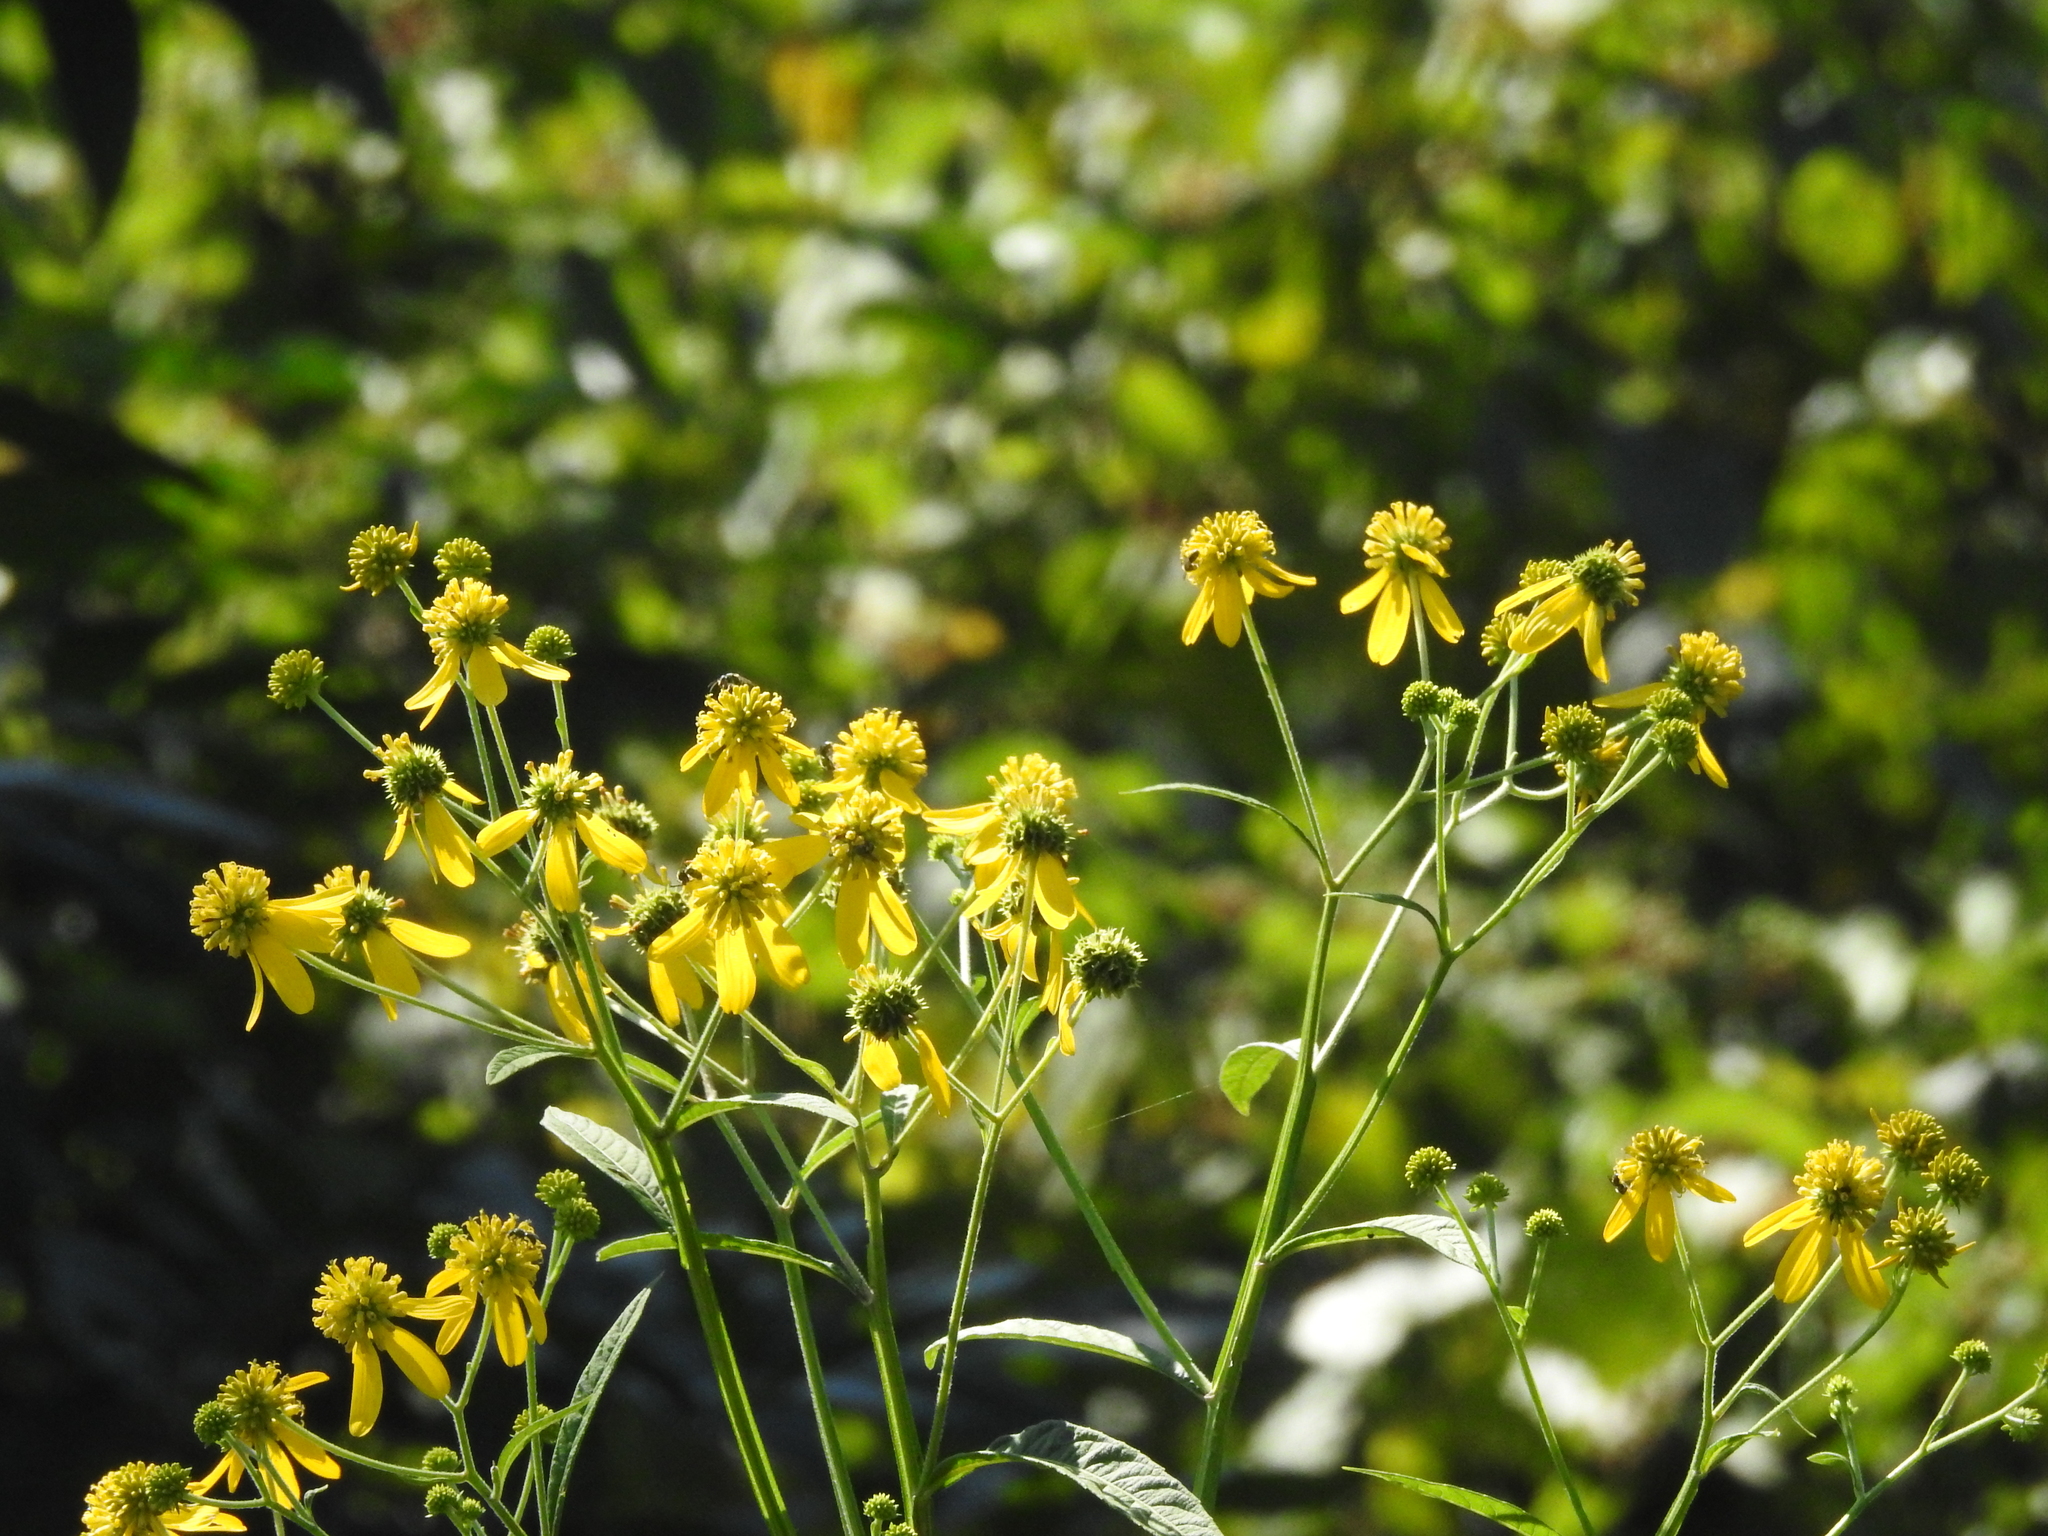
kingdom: Plantae
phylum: Tracheophyta
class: Magnoliopsida
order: Asterales
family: Asteraceae
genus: Verbesina
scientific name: Verbesina alternifolia
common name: Wingstem
